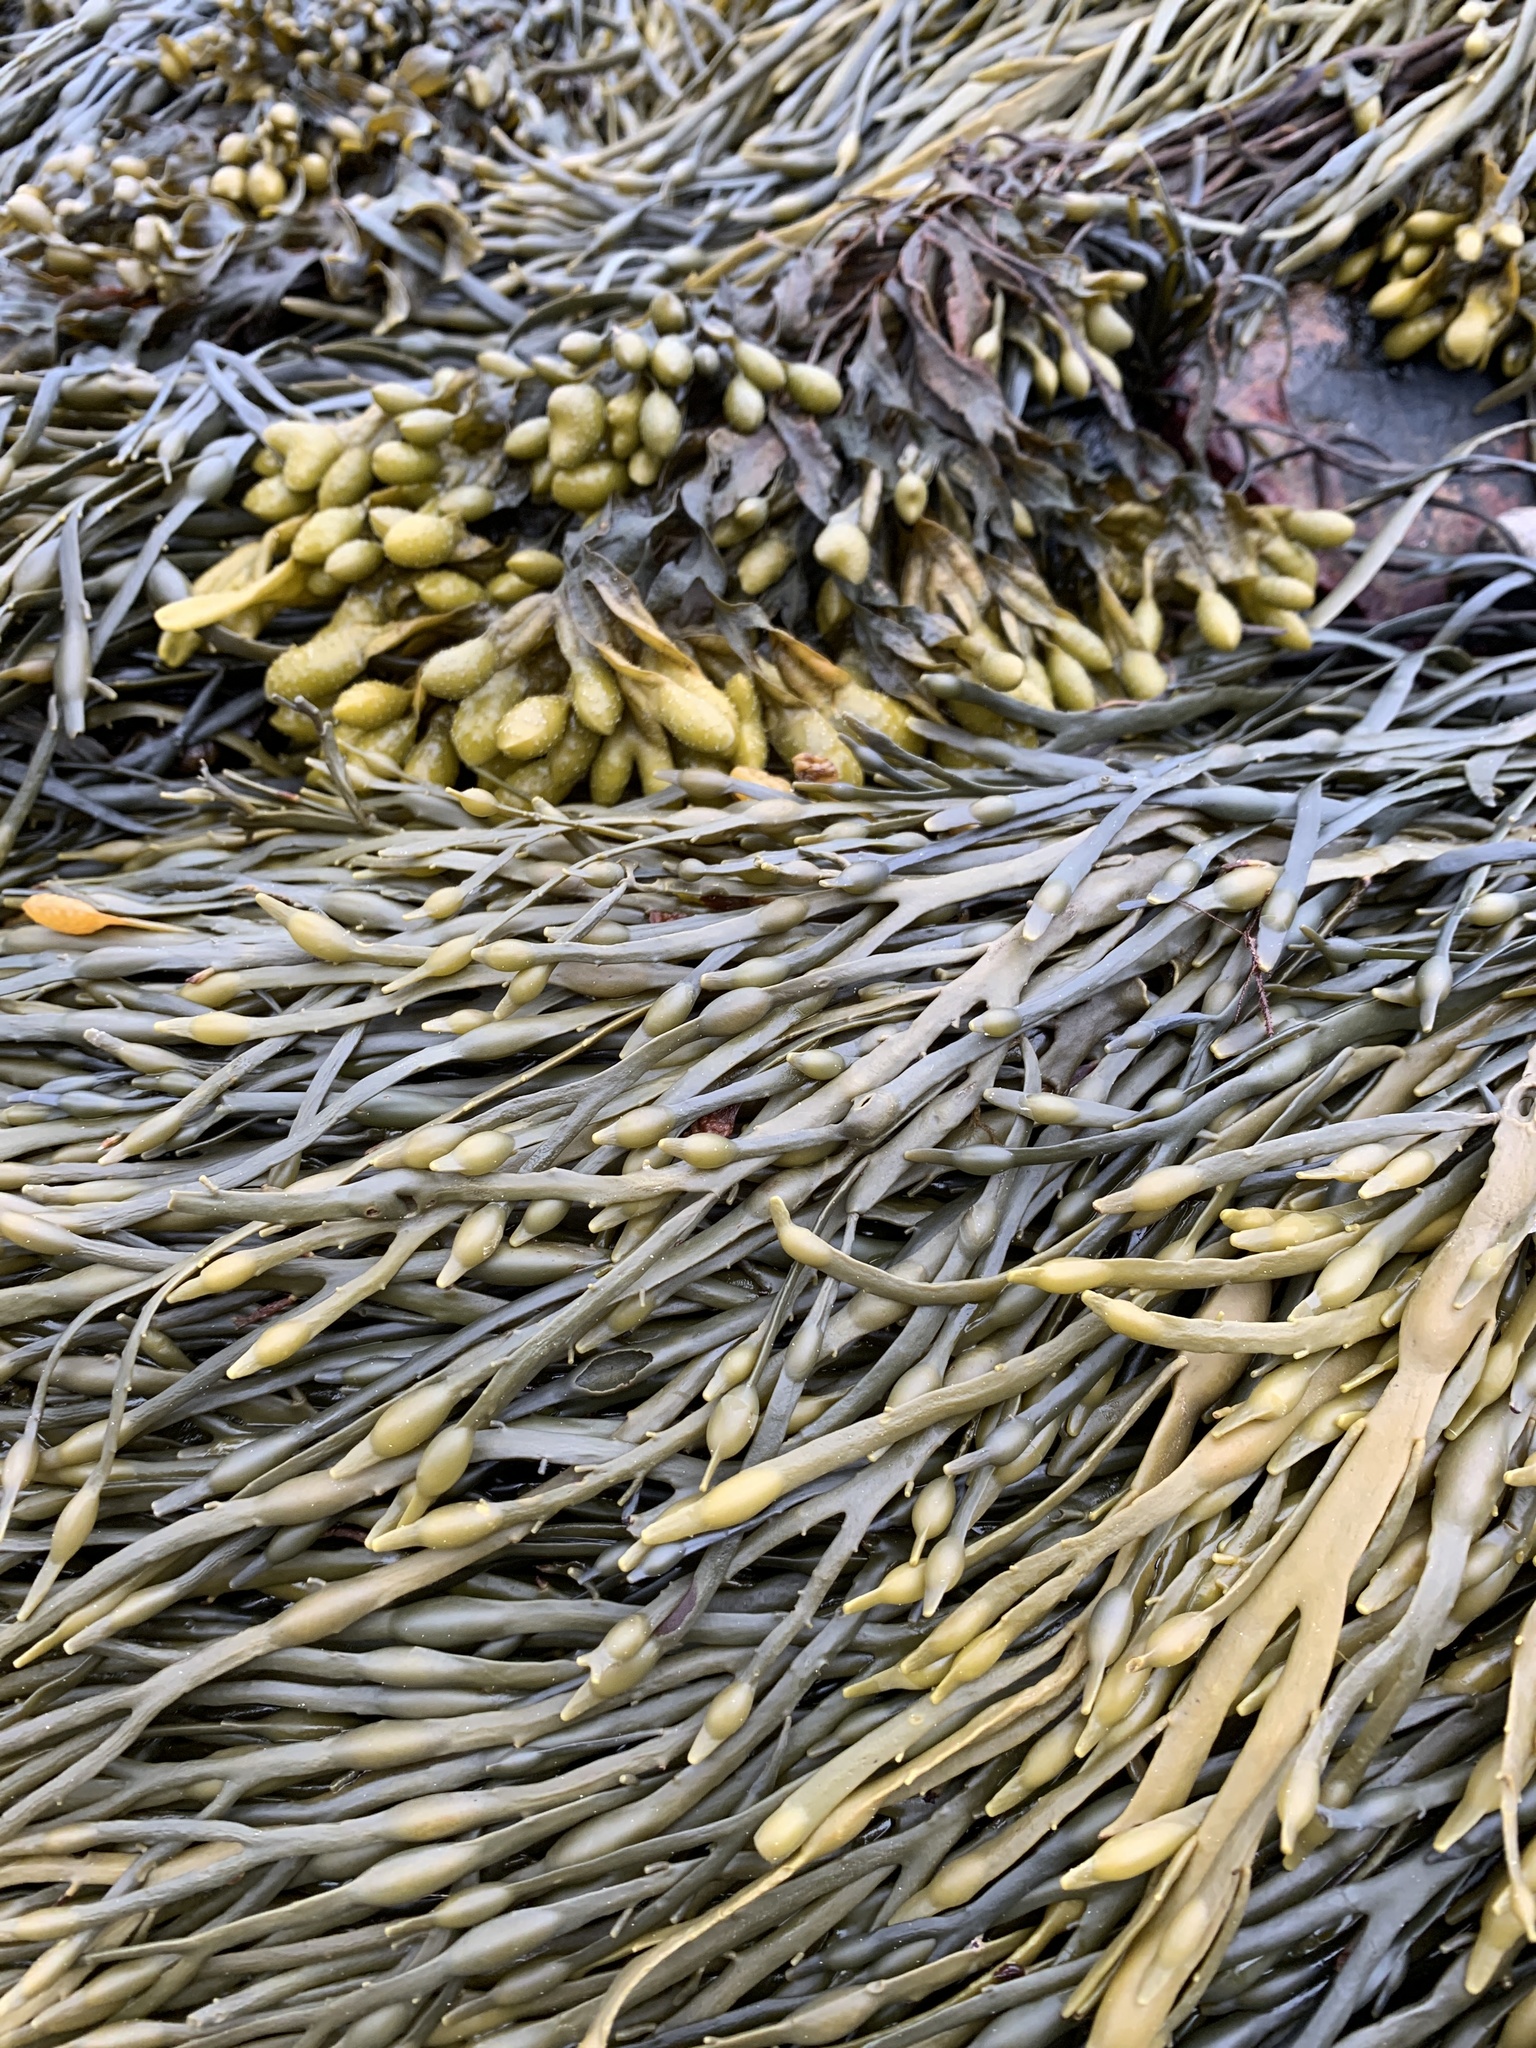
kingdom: Chromista
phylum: Ochrophyta
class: Phaeophyceae
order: Fucales
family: Fucaceae
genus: Ascophyllum
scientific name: Ascophyllum nodosum
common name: Knotted wrack
